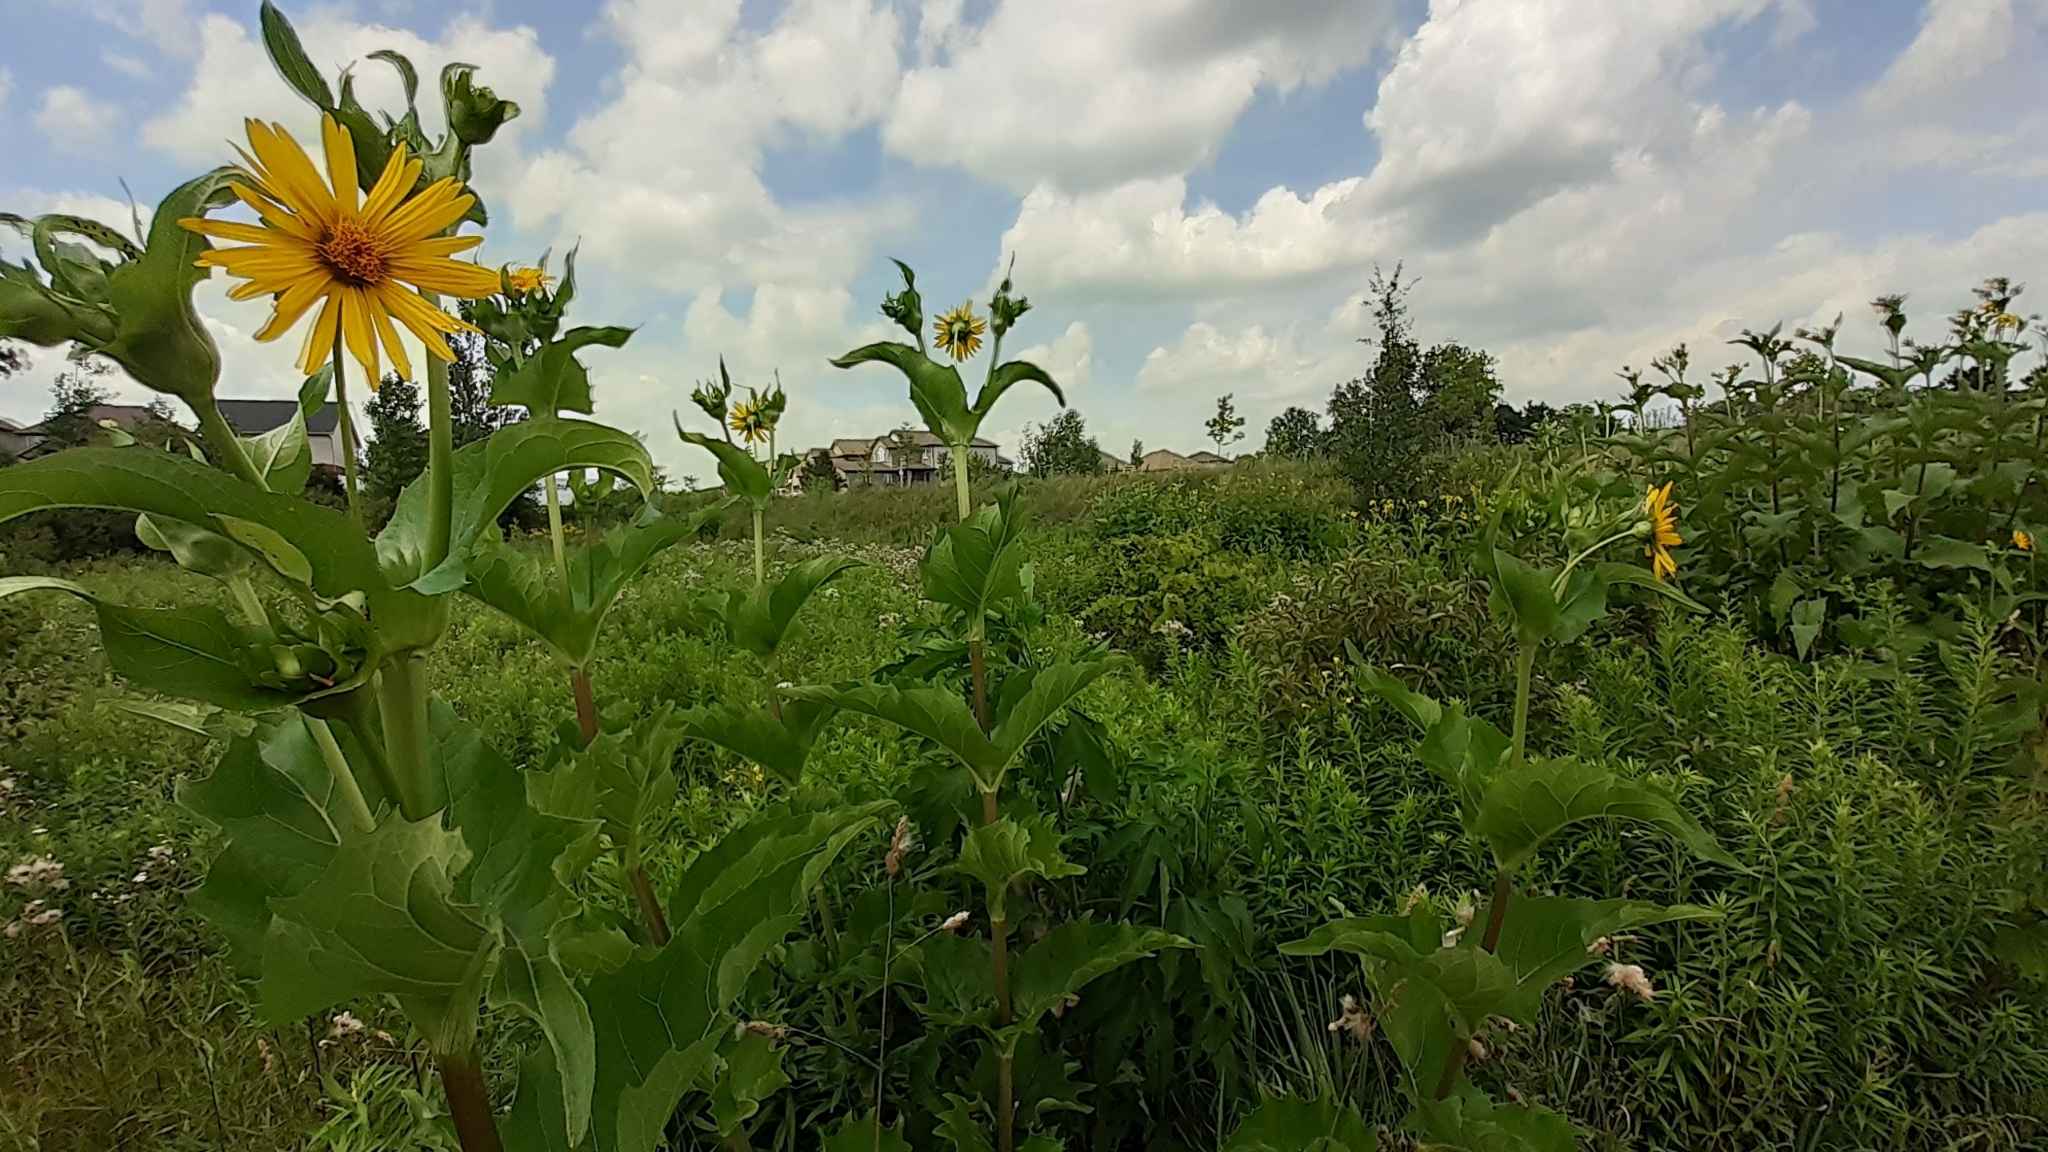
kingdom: Plantae
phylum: Tracheophyta
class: Magnoliopsida
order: Asterales
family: Asteraceae
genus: Silphium
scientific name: Silphium perfoliatum
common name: Cup-plant
